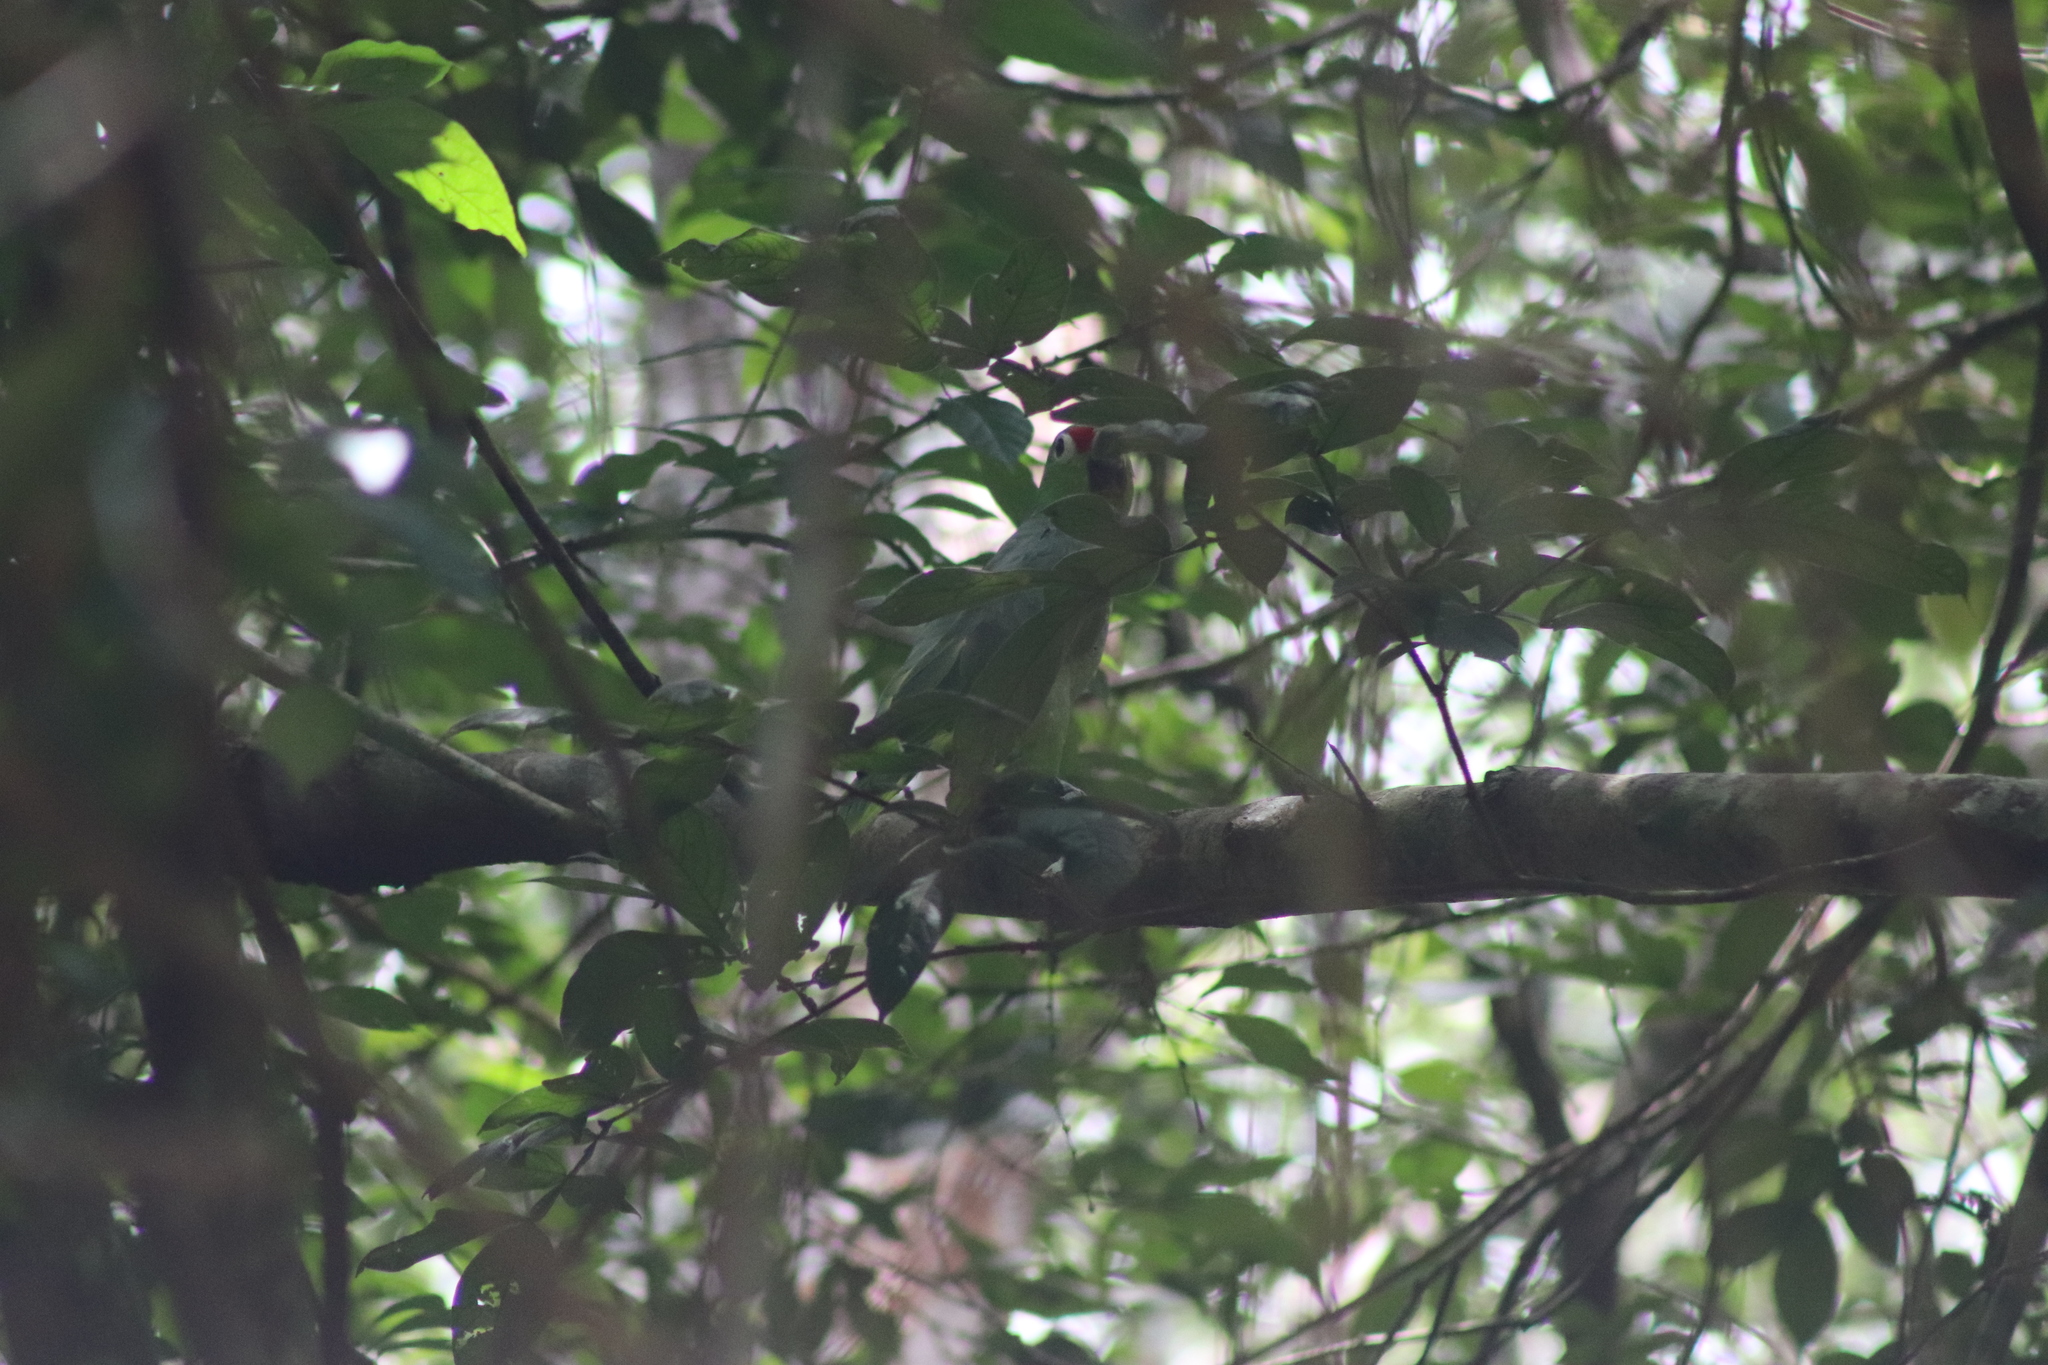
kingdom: Animalia
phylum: Chordata
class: Aves
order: Psittaciformes
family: Psittacidae
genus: Amazona
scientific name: Amazona autumnalis
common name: Red-lored amazon
